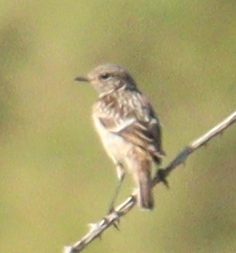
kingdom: Animalia
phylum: Chordata
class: Aves
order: Passeriformes
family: Muscicapidae
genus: Saxicola
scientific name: Saxicola rubicola
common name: European stonechat
